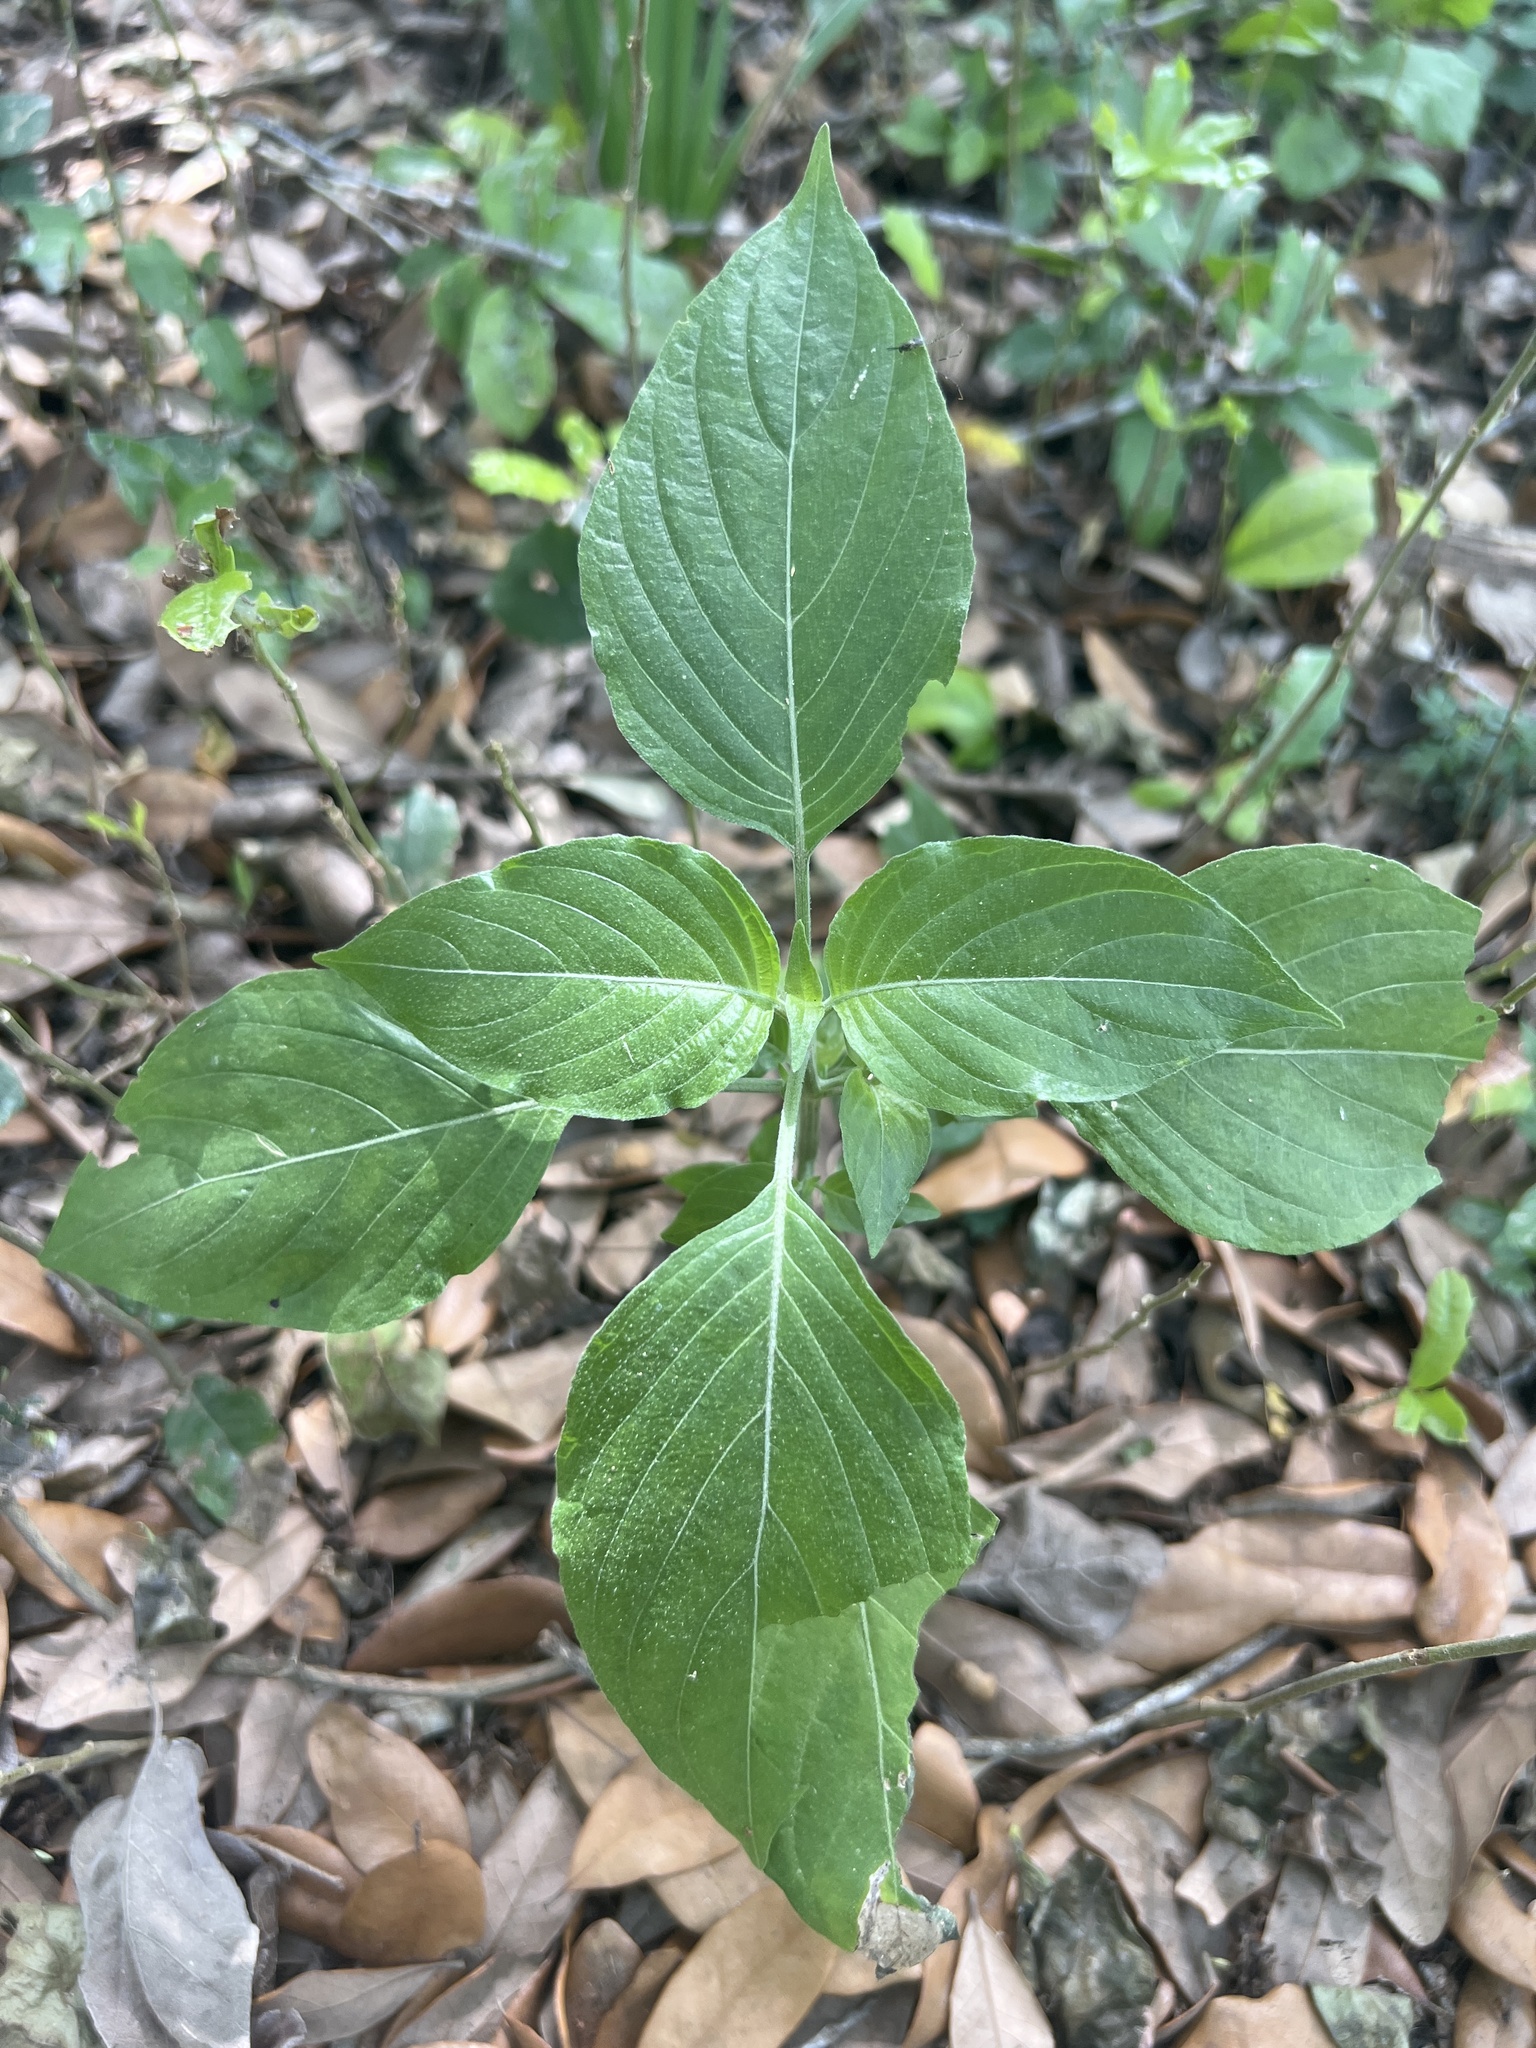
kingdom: Plantae
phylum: Tracheophyta
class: Magnoliopsida
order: Lamiales
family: Acanthaceae
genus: Dicliptera
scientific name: Dicliptera sexangularis
